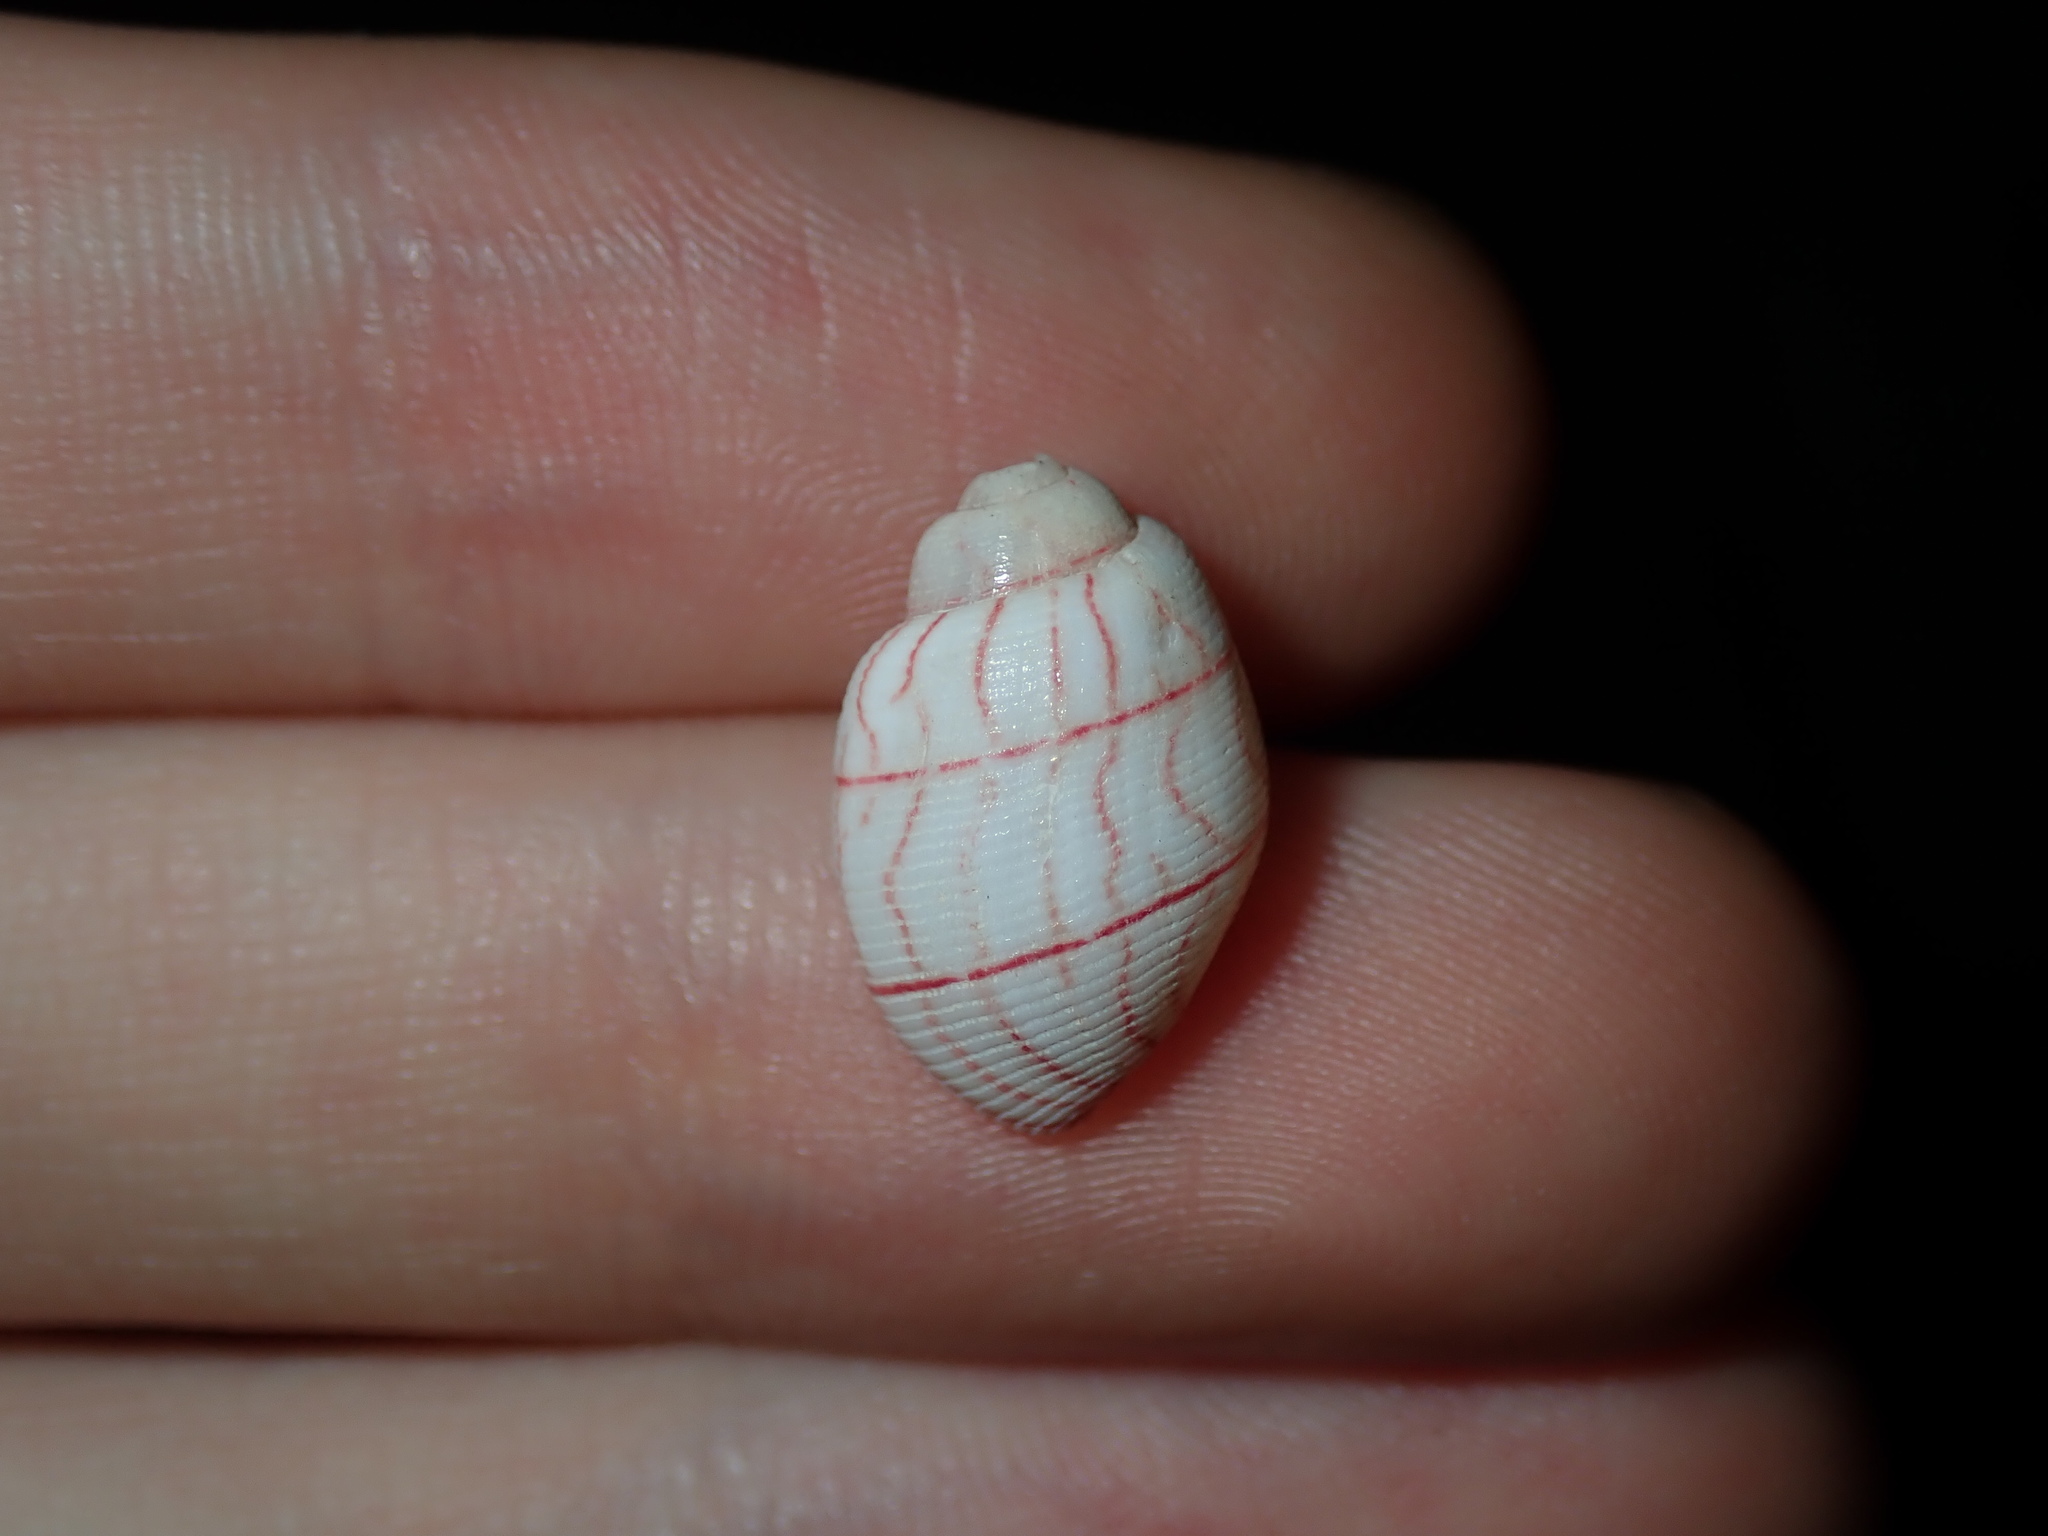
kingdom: Animalia
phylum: Mollusca
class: Gastropoda
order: Cephalaspidea
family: Aplustridae
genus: Bullina
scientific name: Bullina lineata
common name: Lined bubble snail
